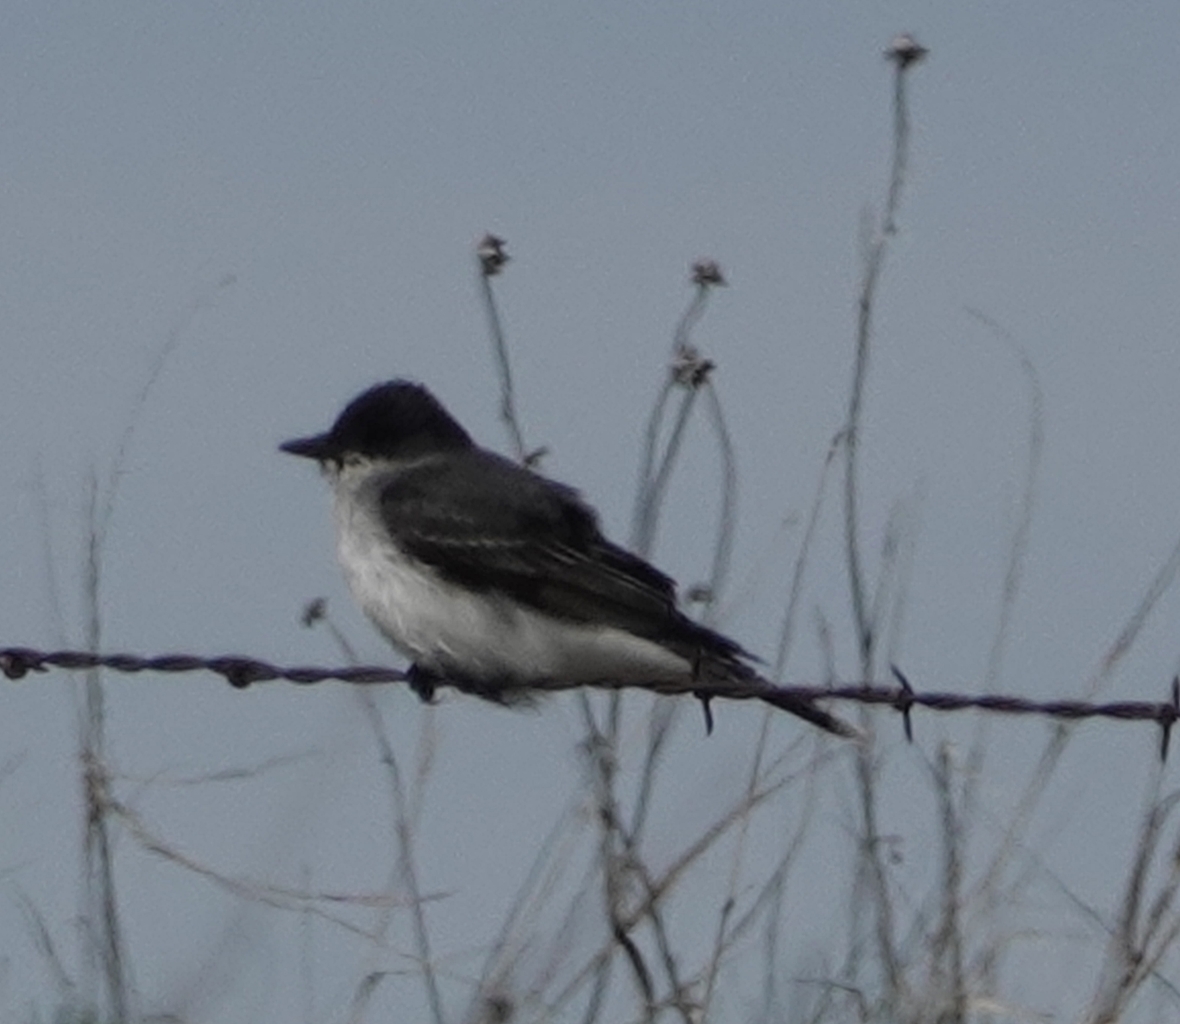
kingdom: Animalia
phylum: Chordata
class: Aves
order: Passeriformes
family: Tyrannidae
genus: Tyrannus
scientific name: Tyrannus tyrannus
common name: Eastern kingbird
